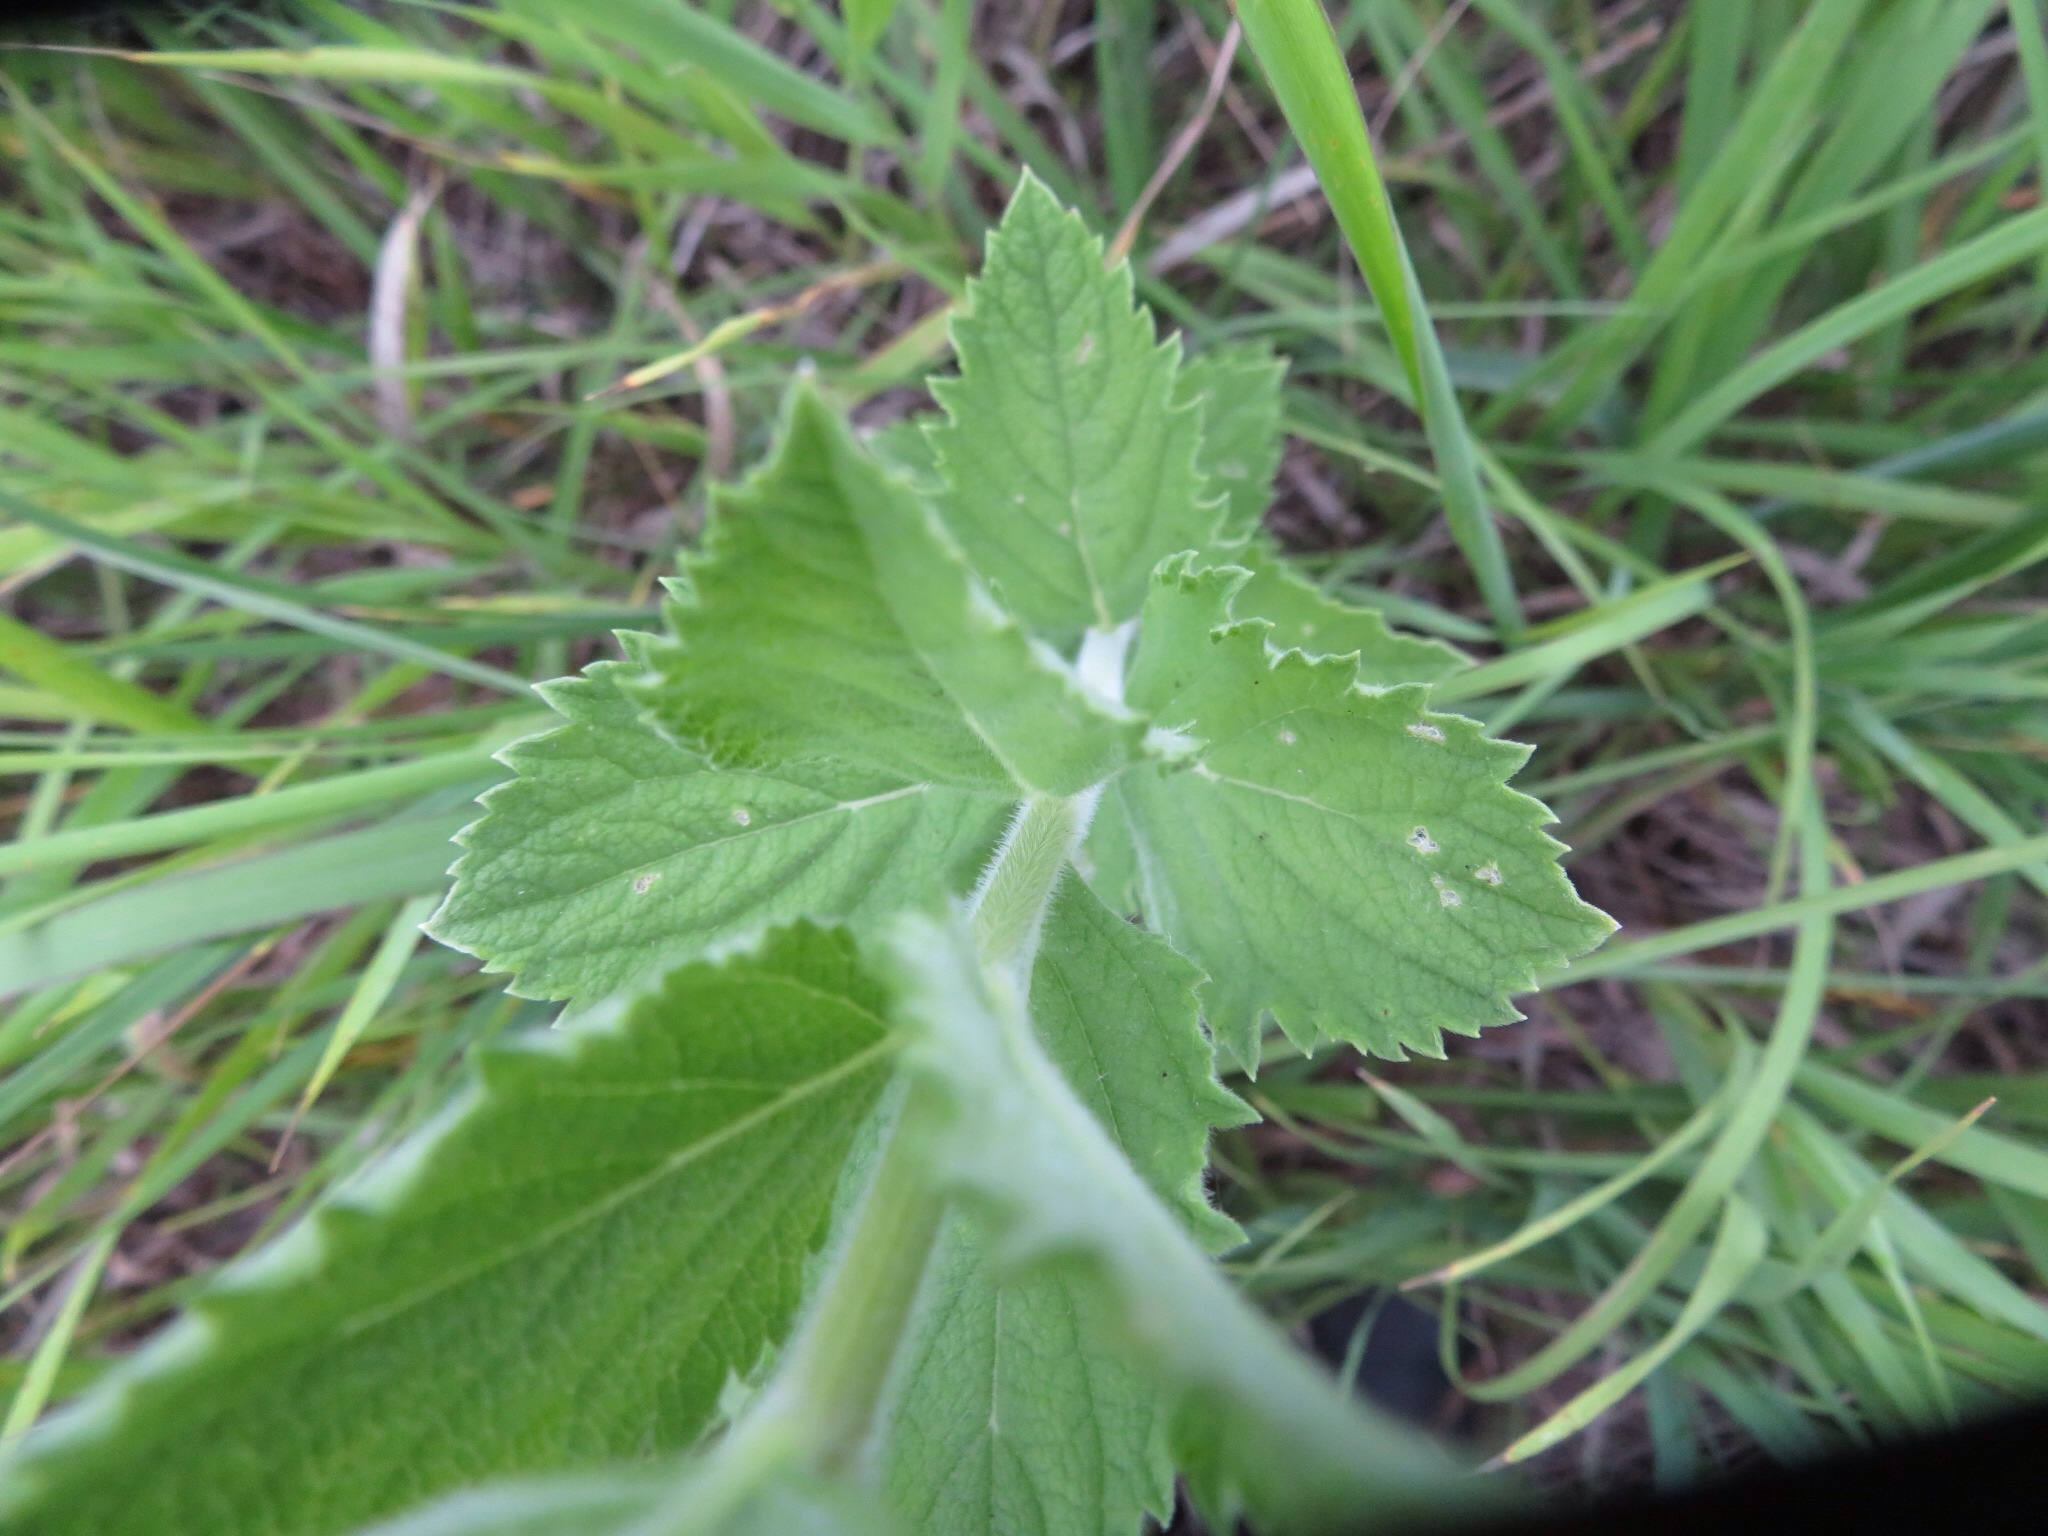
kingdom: Plantae
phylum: Tracheophyta
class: Magnoliopsida
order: Lamiales
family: Verbenaceae
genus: Verbena
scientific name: Verbena simplex
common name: Narrow-leaf vervain
